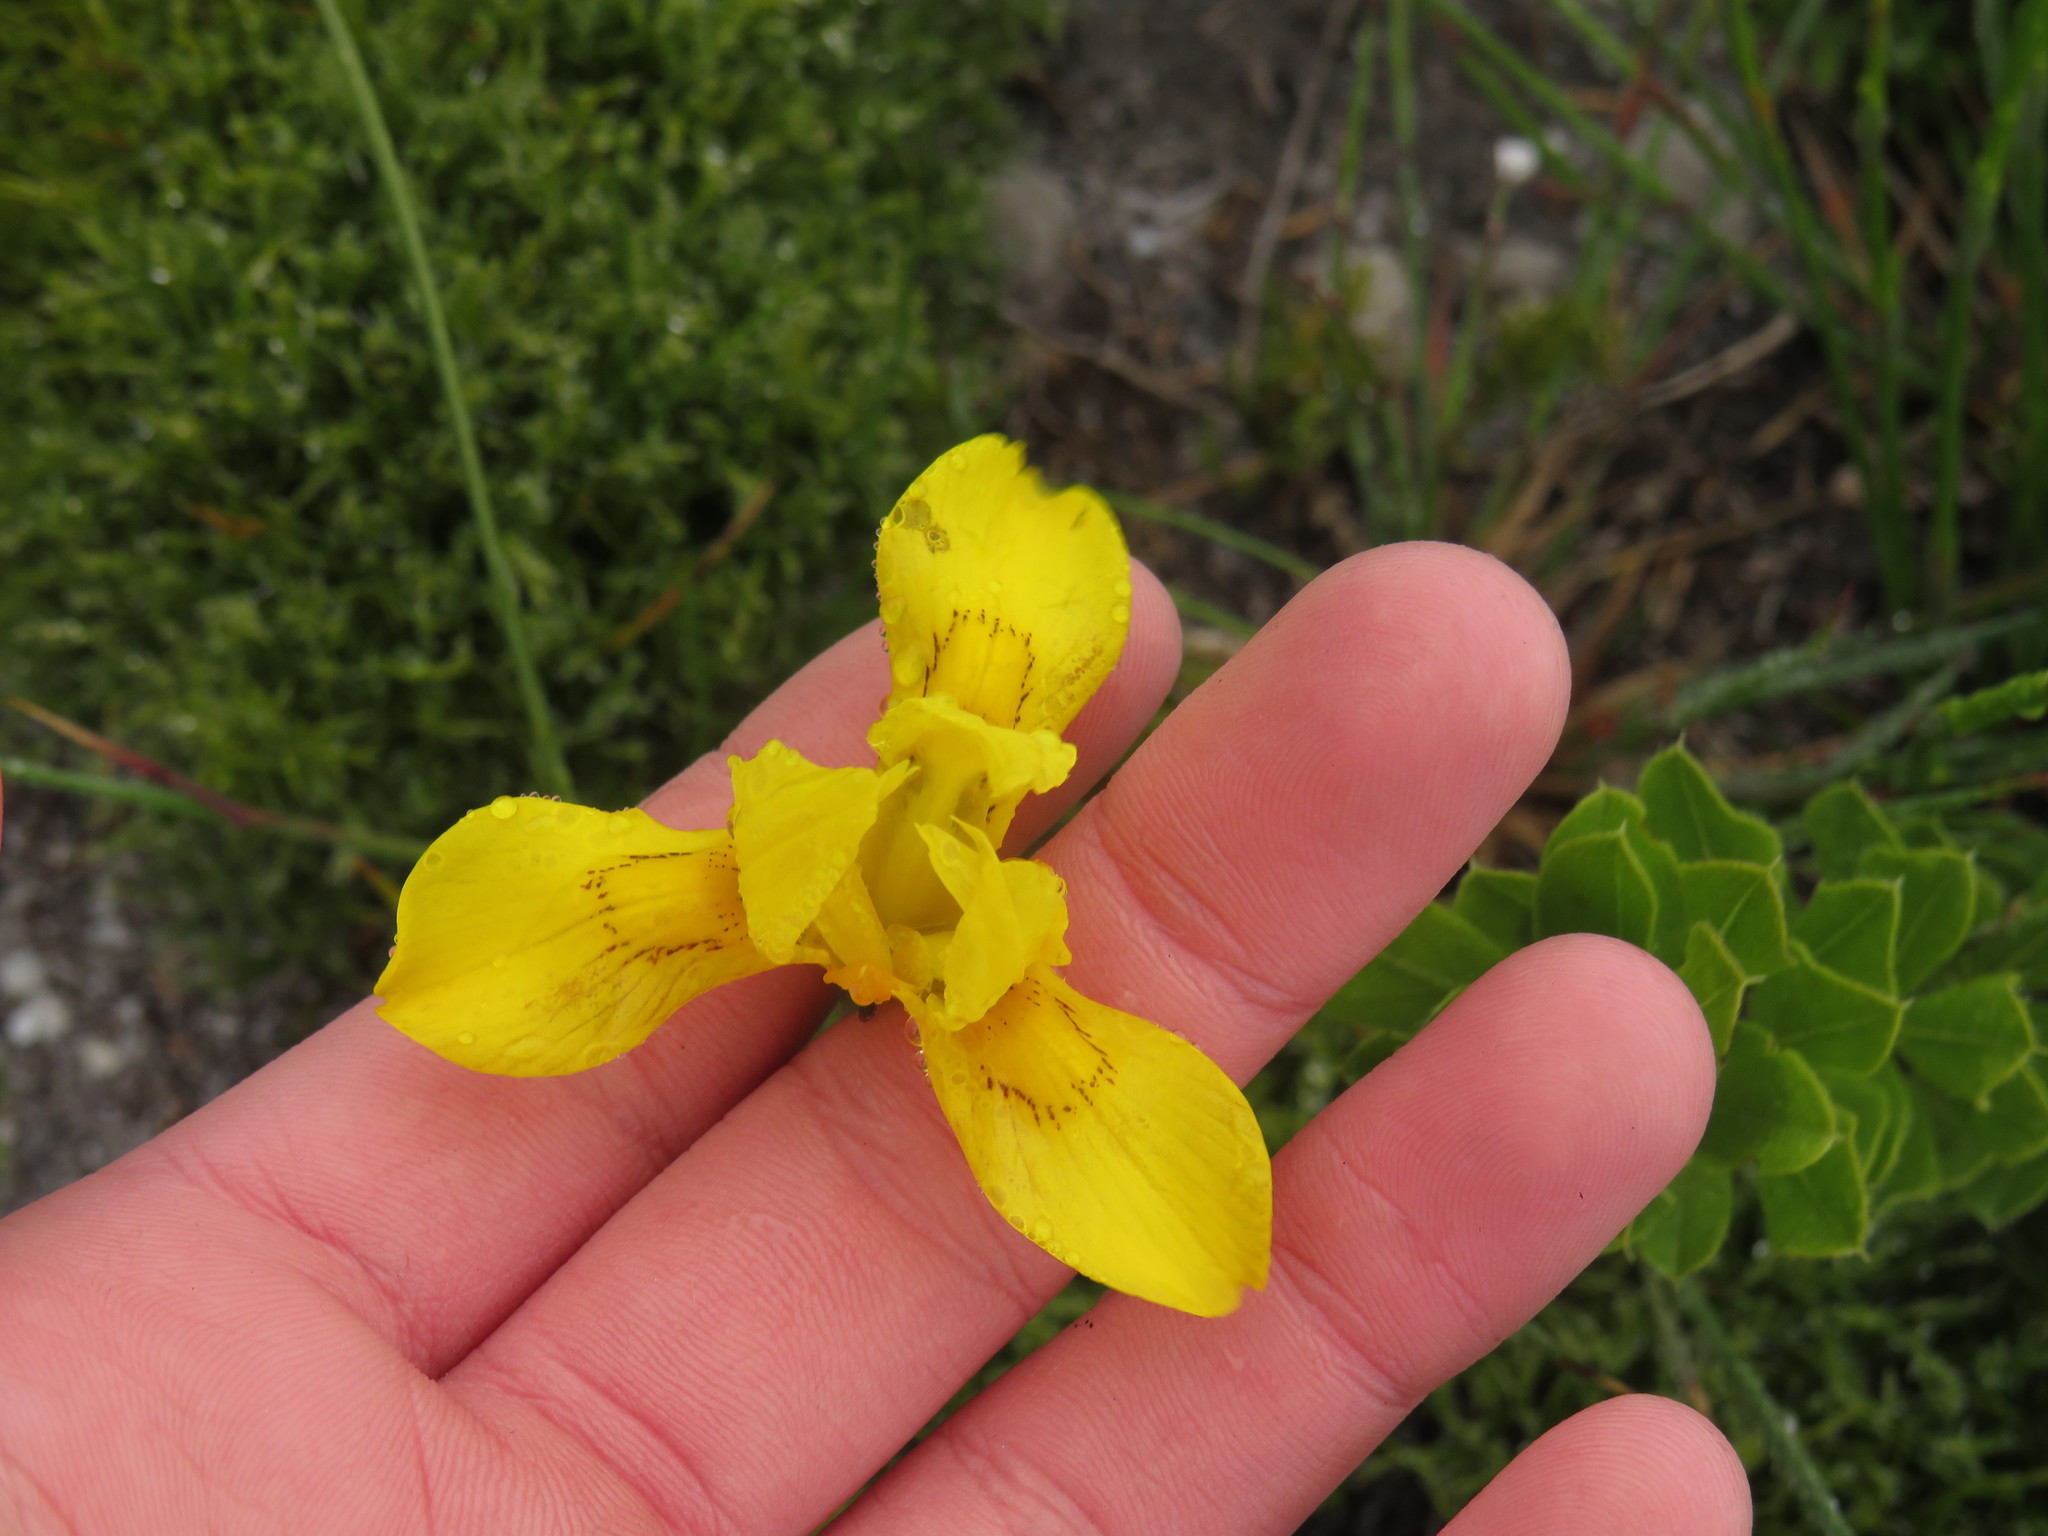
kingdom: Plantae
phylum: Tracheophyta
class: Liliopsida
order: Asparagales
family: Iridaceae
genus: Moraea
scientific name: Moraea neglecta
